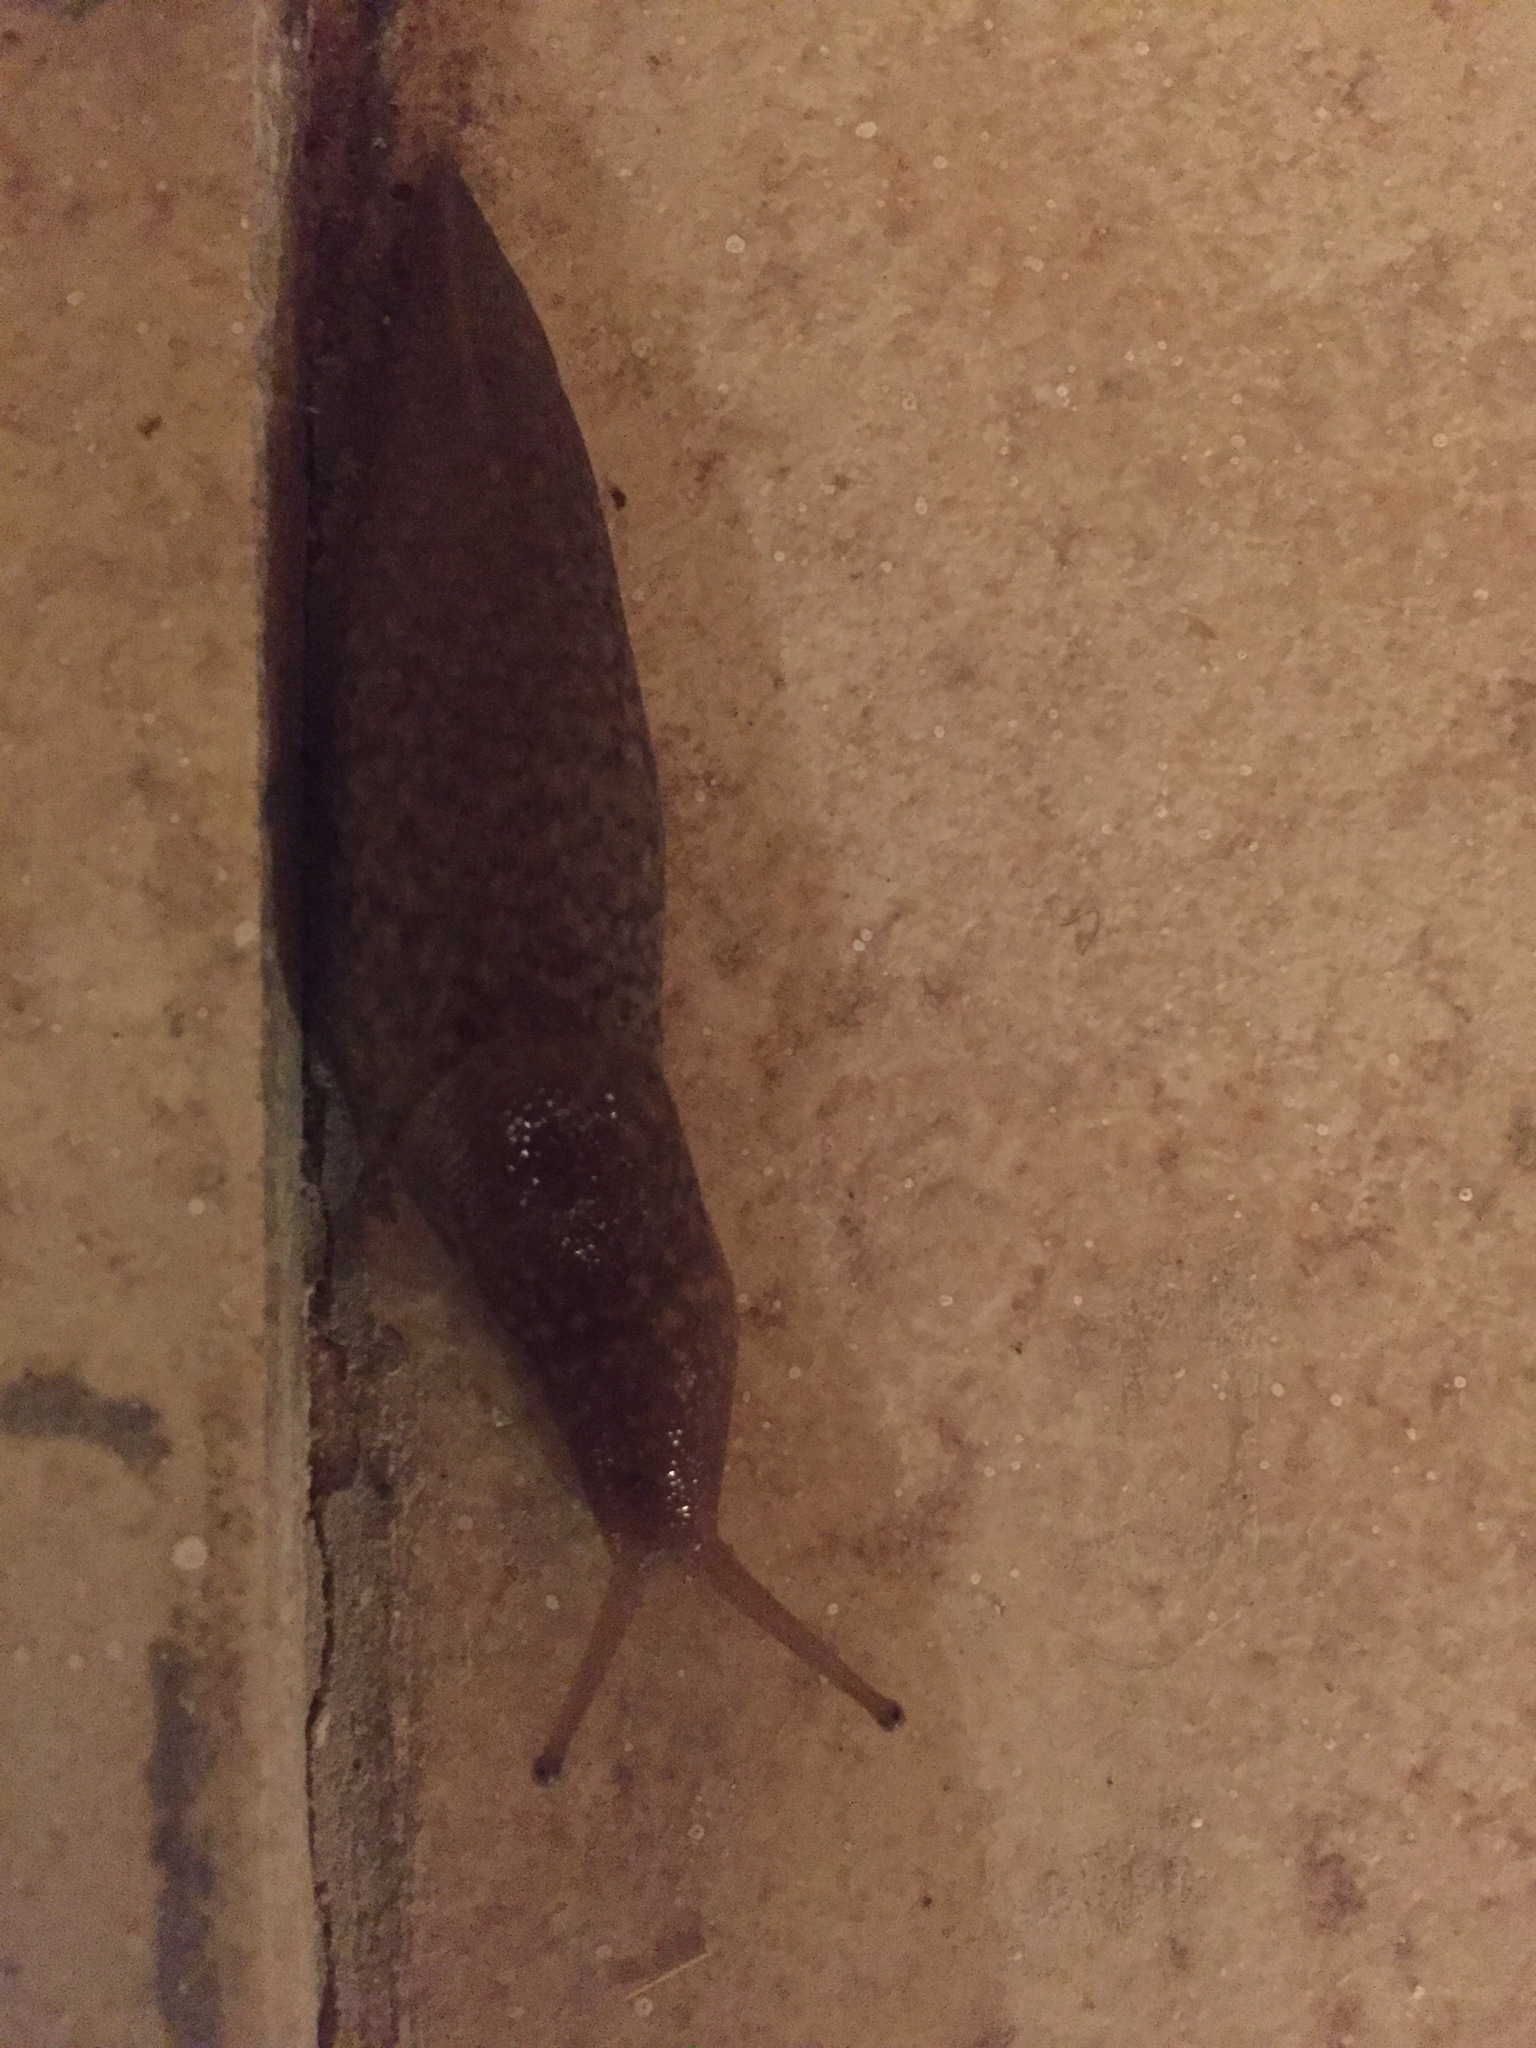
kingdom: Animalia
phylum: Mollusca
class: Gastropoda
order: Stylommatophora
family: Limacidae
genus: Limacus
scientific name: Limacus flavus
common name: Yellow gardenslug
